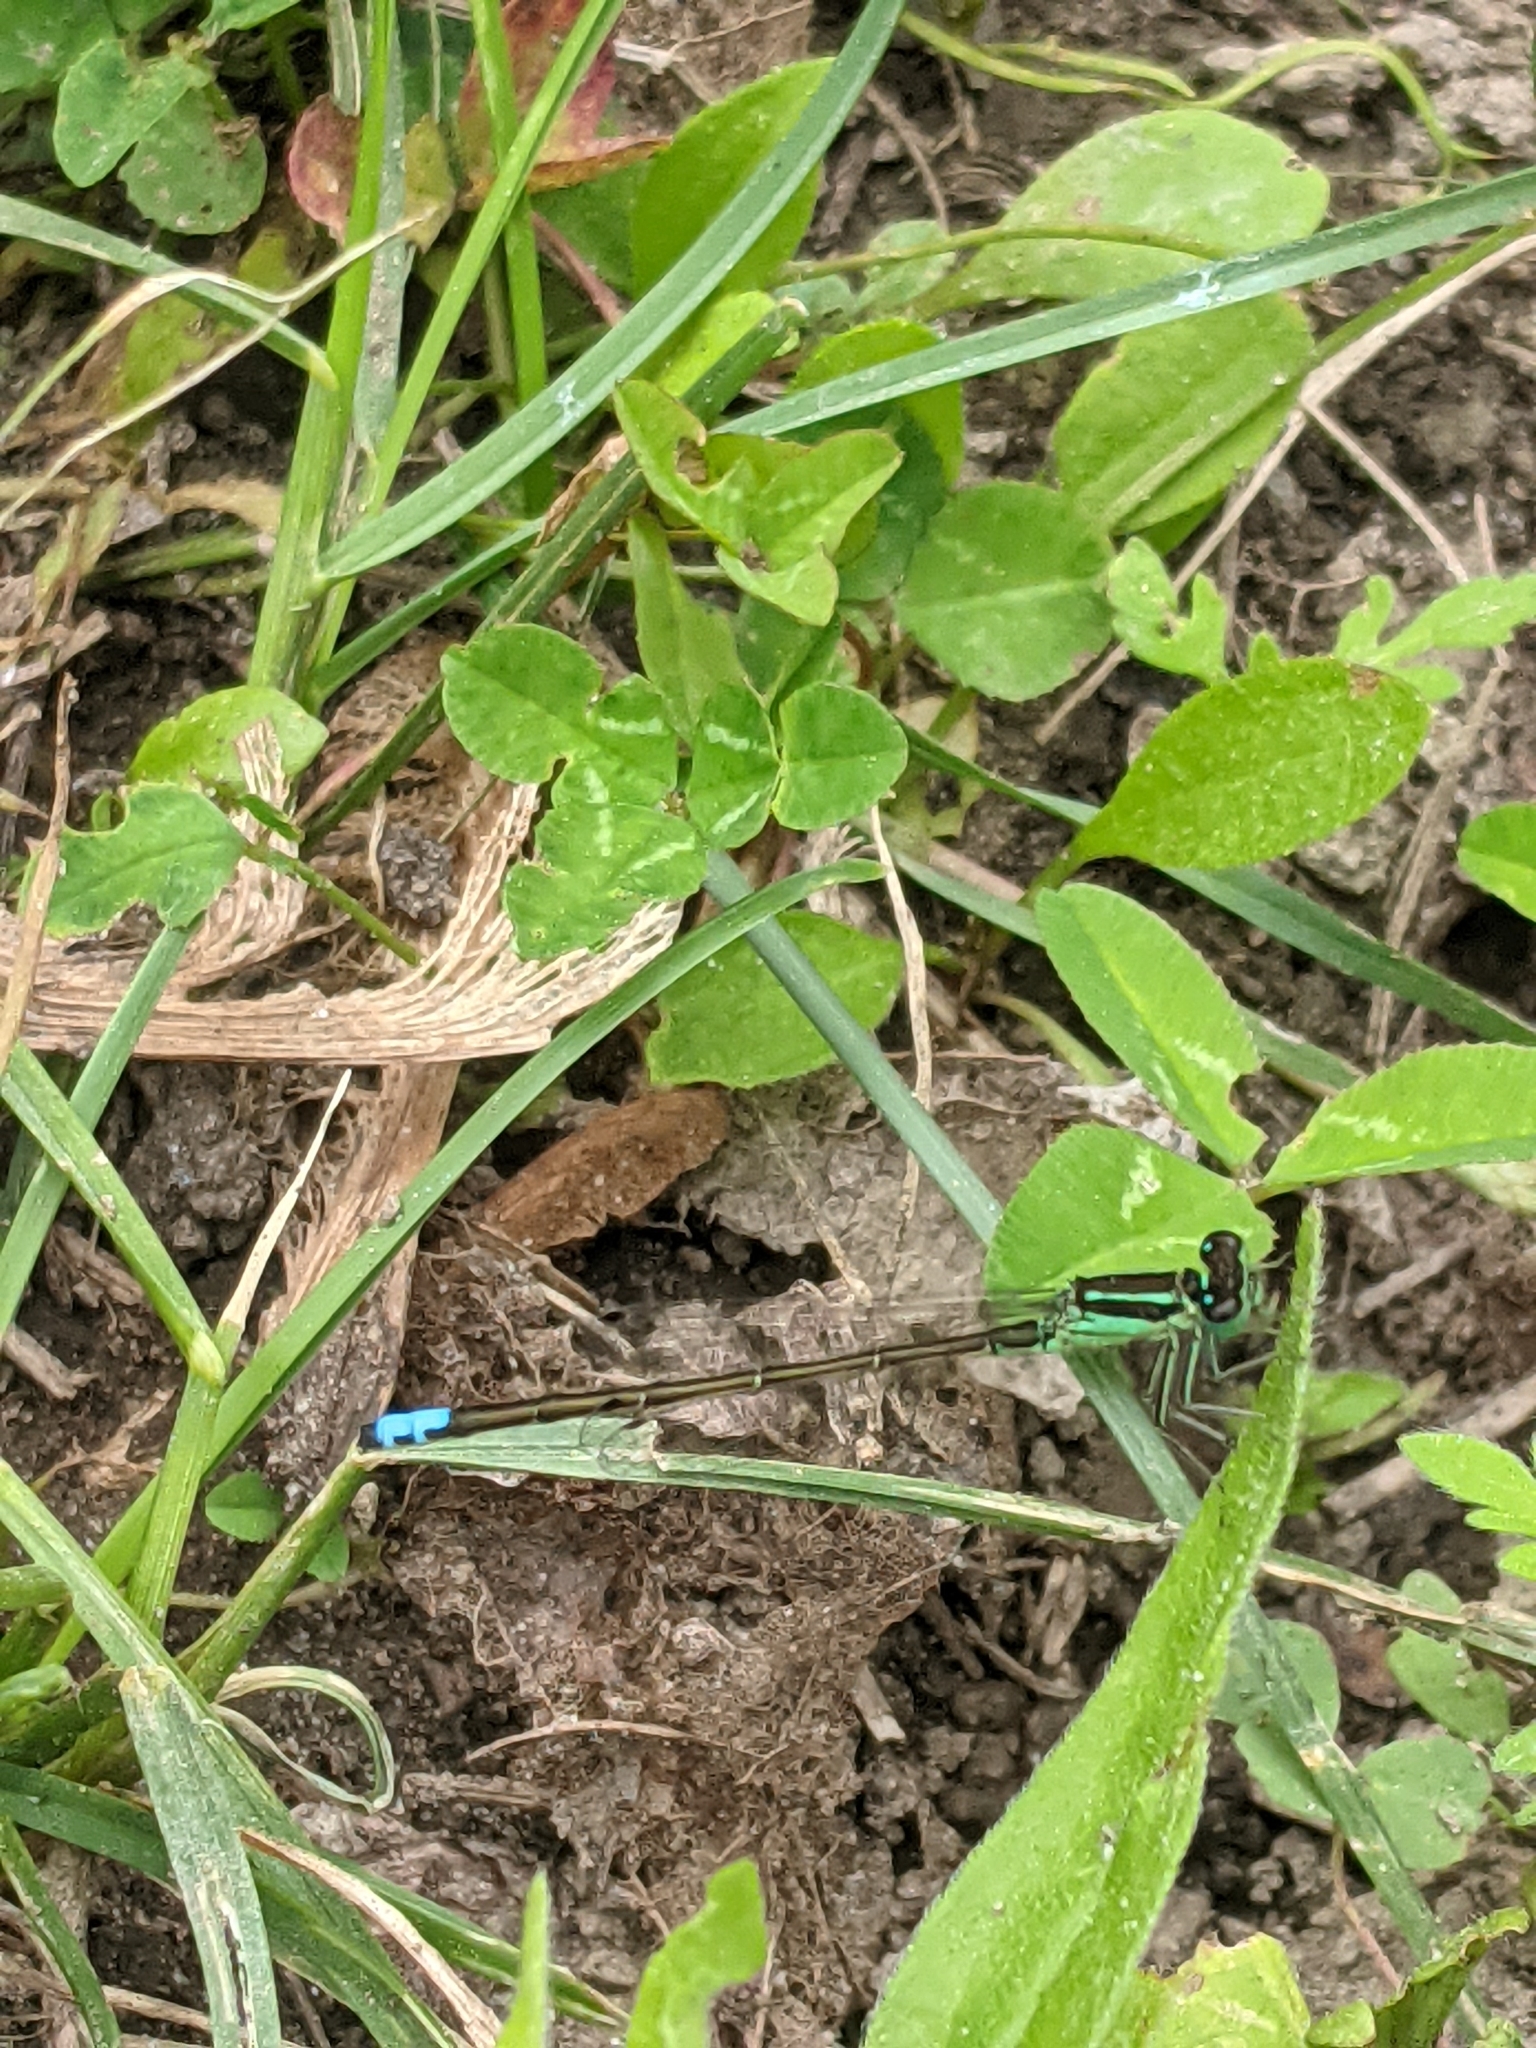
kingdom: Animalia
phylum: Arthropoda
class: Insecta
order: Odonata
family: Coenagrionidae
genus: Ischnura
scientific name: Ischnura verticalis
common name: Eastern forktail
